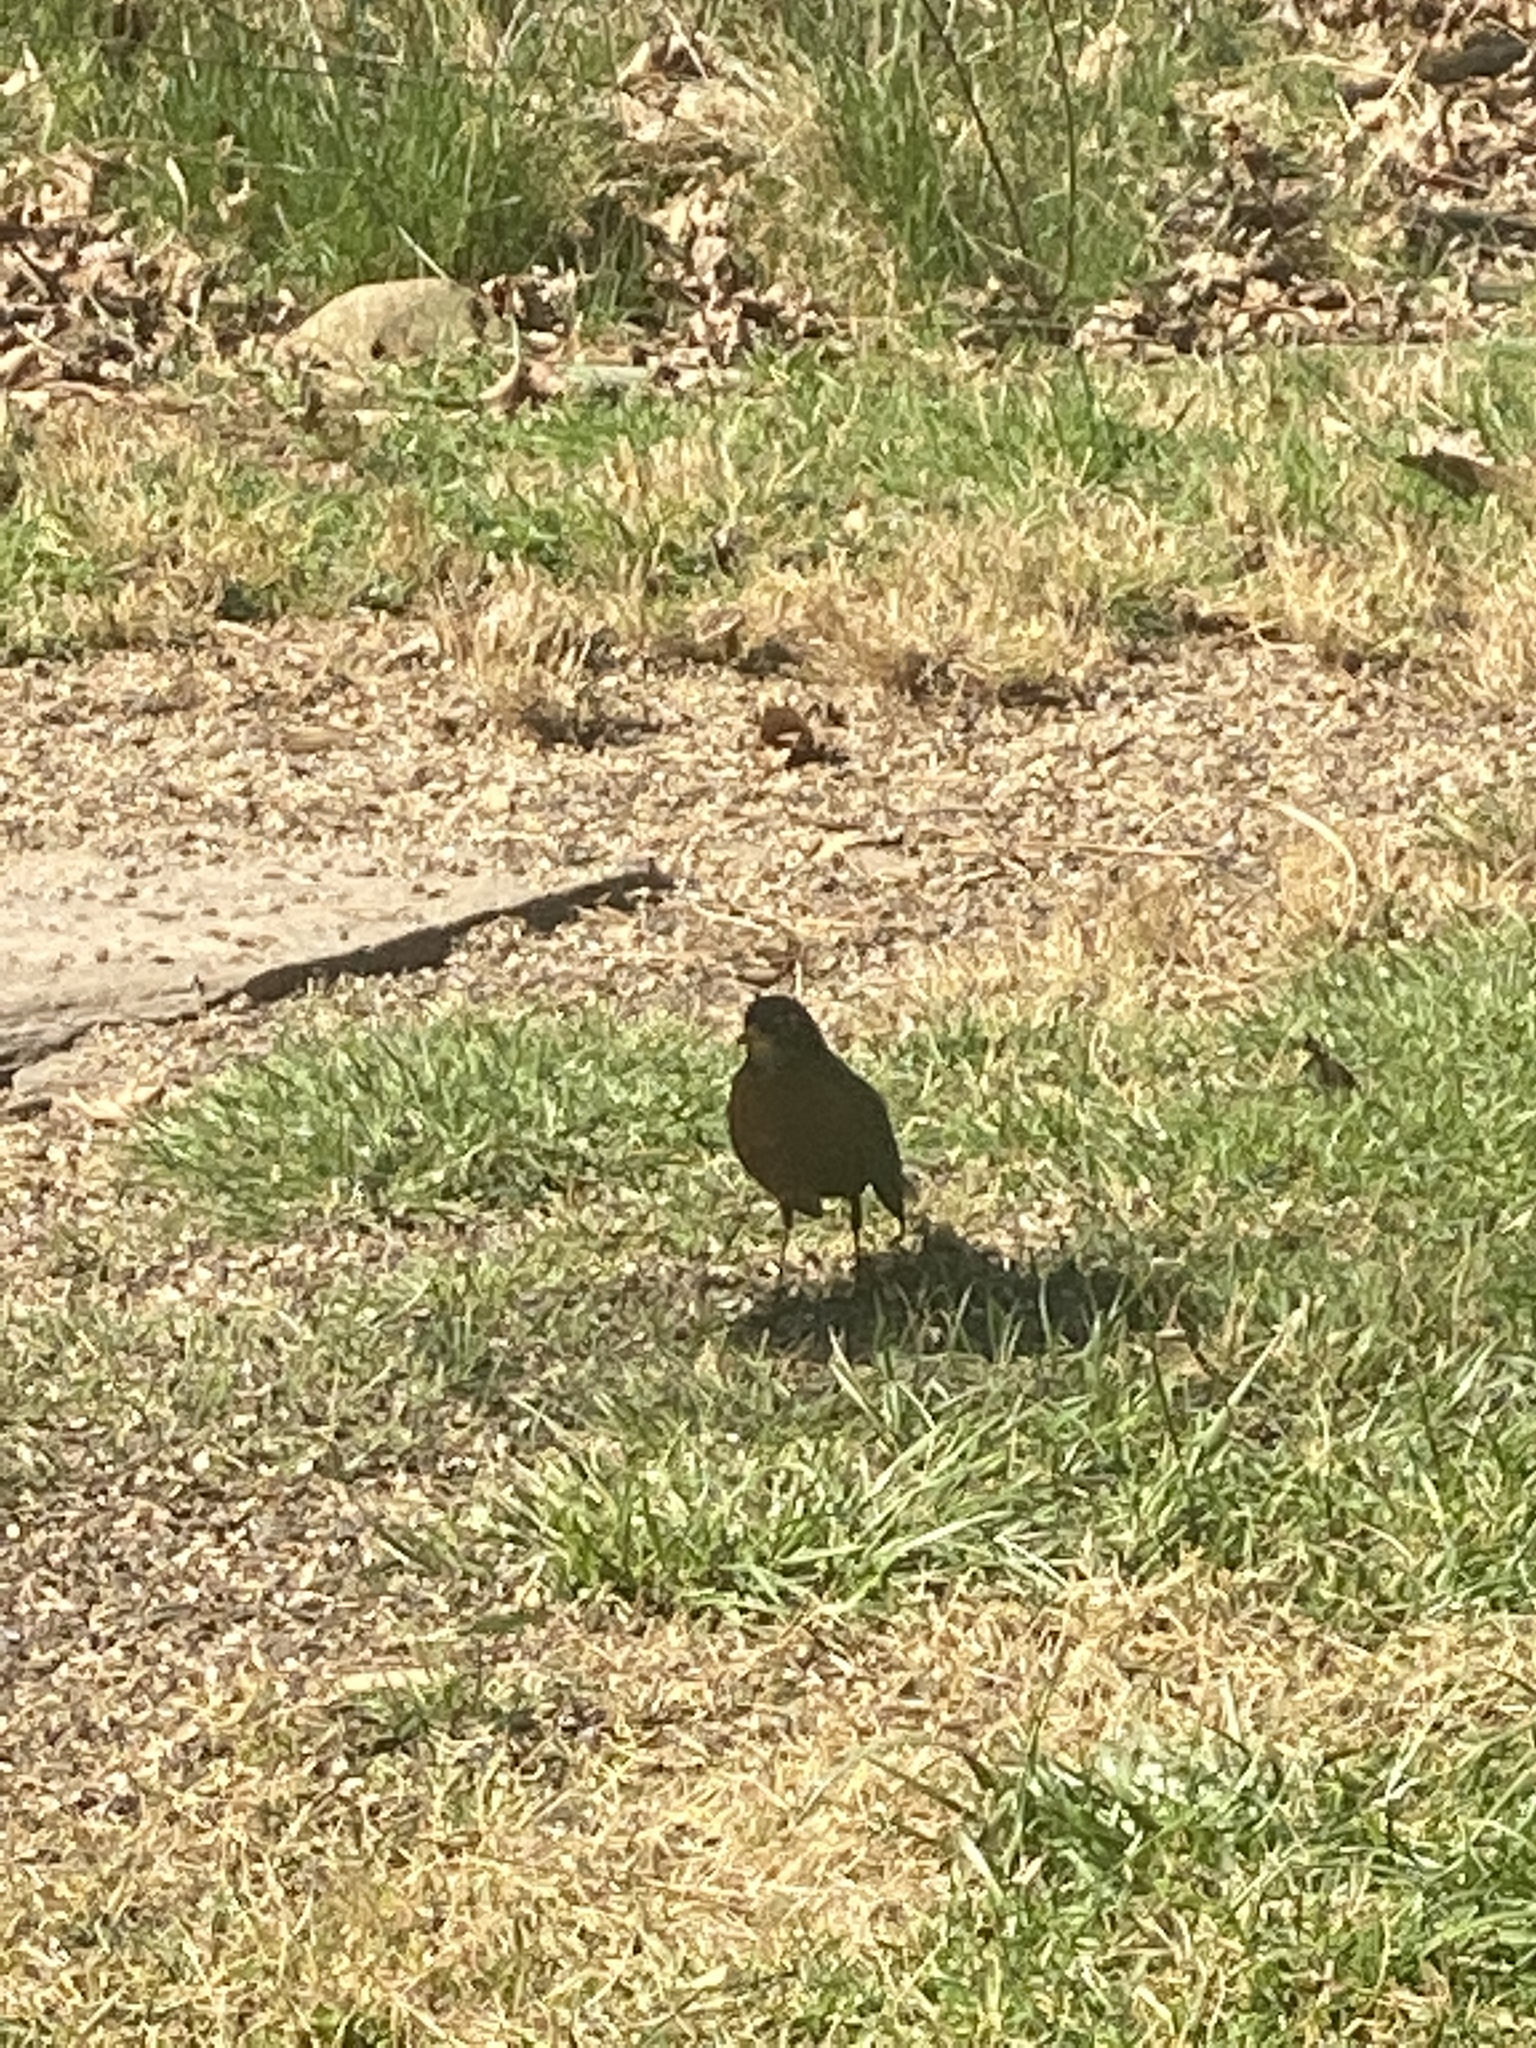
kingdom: Animalia
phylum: Chordata
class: Aves
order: Passeriformes
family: Turdidae
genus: Turdus
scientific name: Turdus migratorius
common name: American robin
